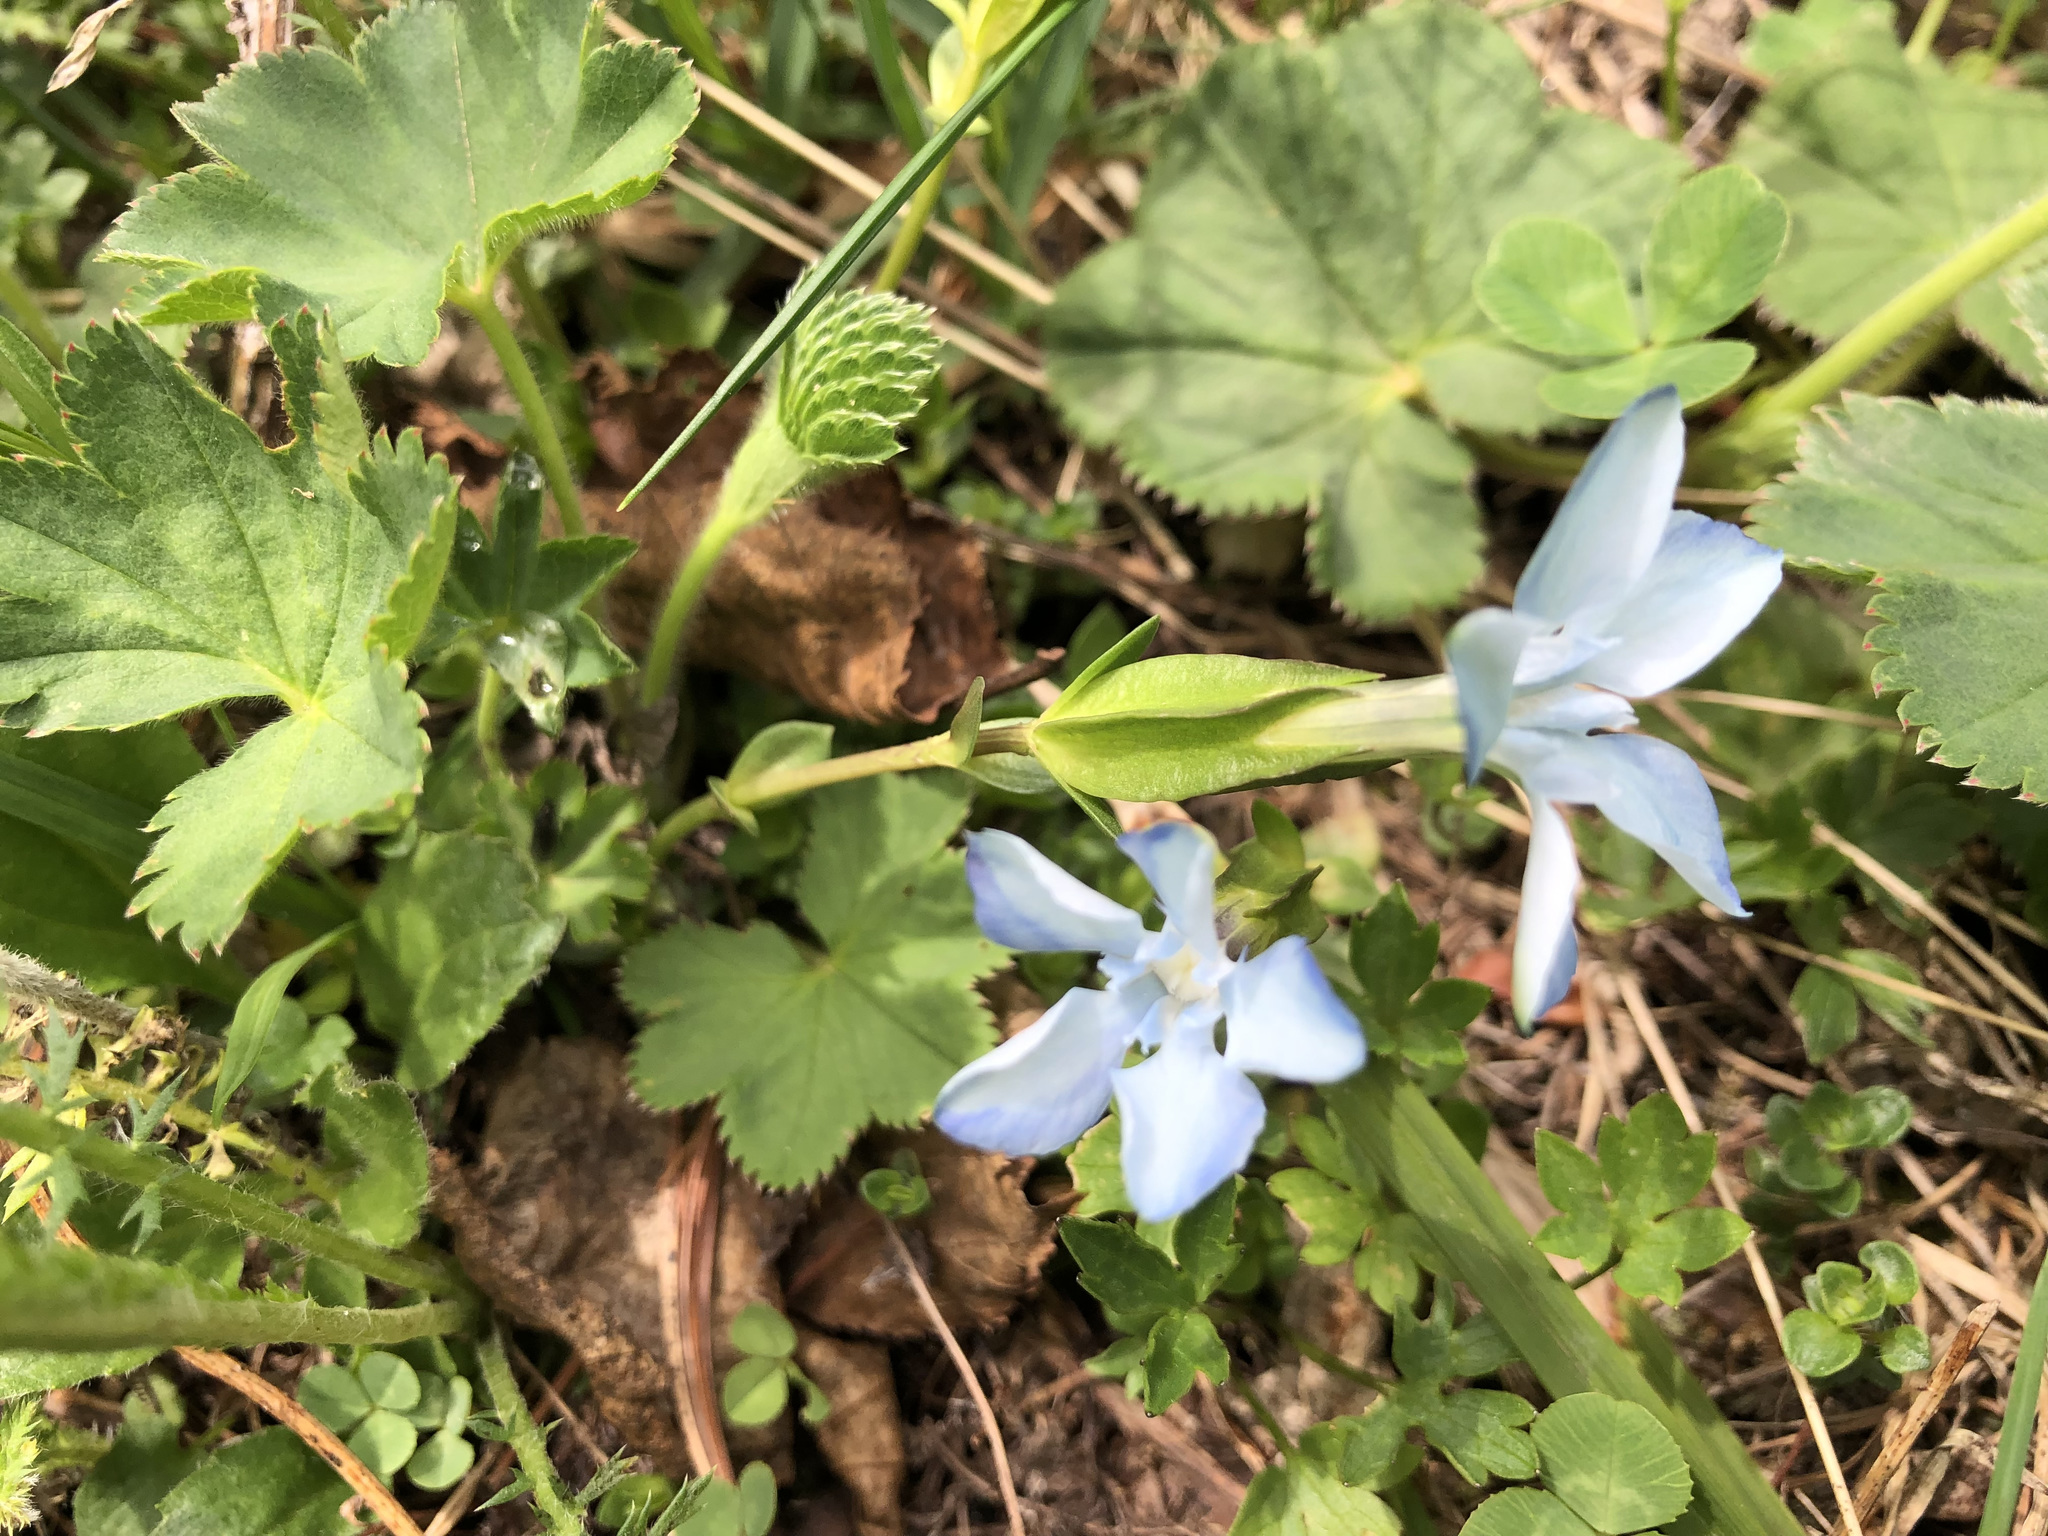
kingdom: Plantae
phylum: Tracheophyta
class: Magnoliopsida
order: Gentianales
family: Gentianaceae
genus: Gentiana
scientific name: Gentiana verna
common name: Spring gentian
